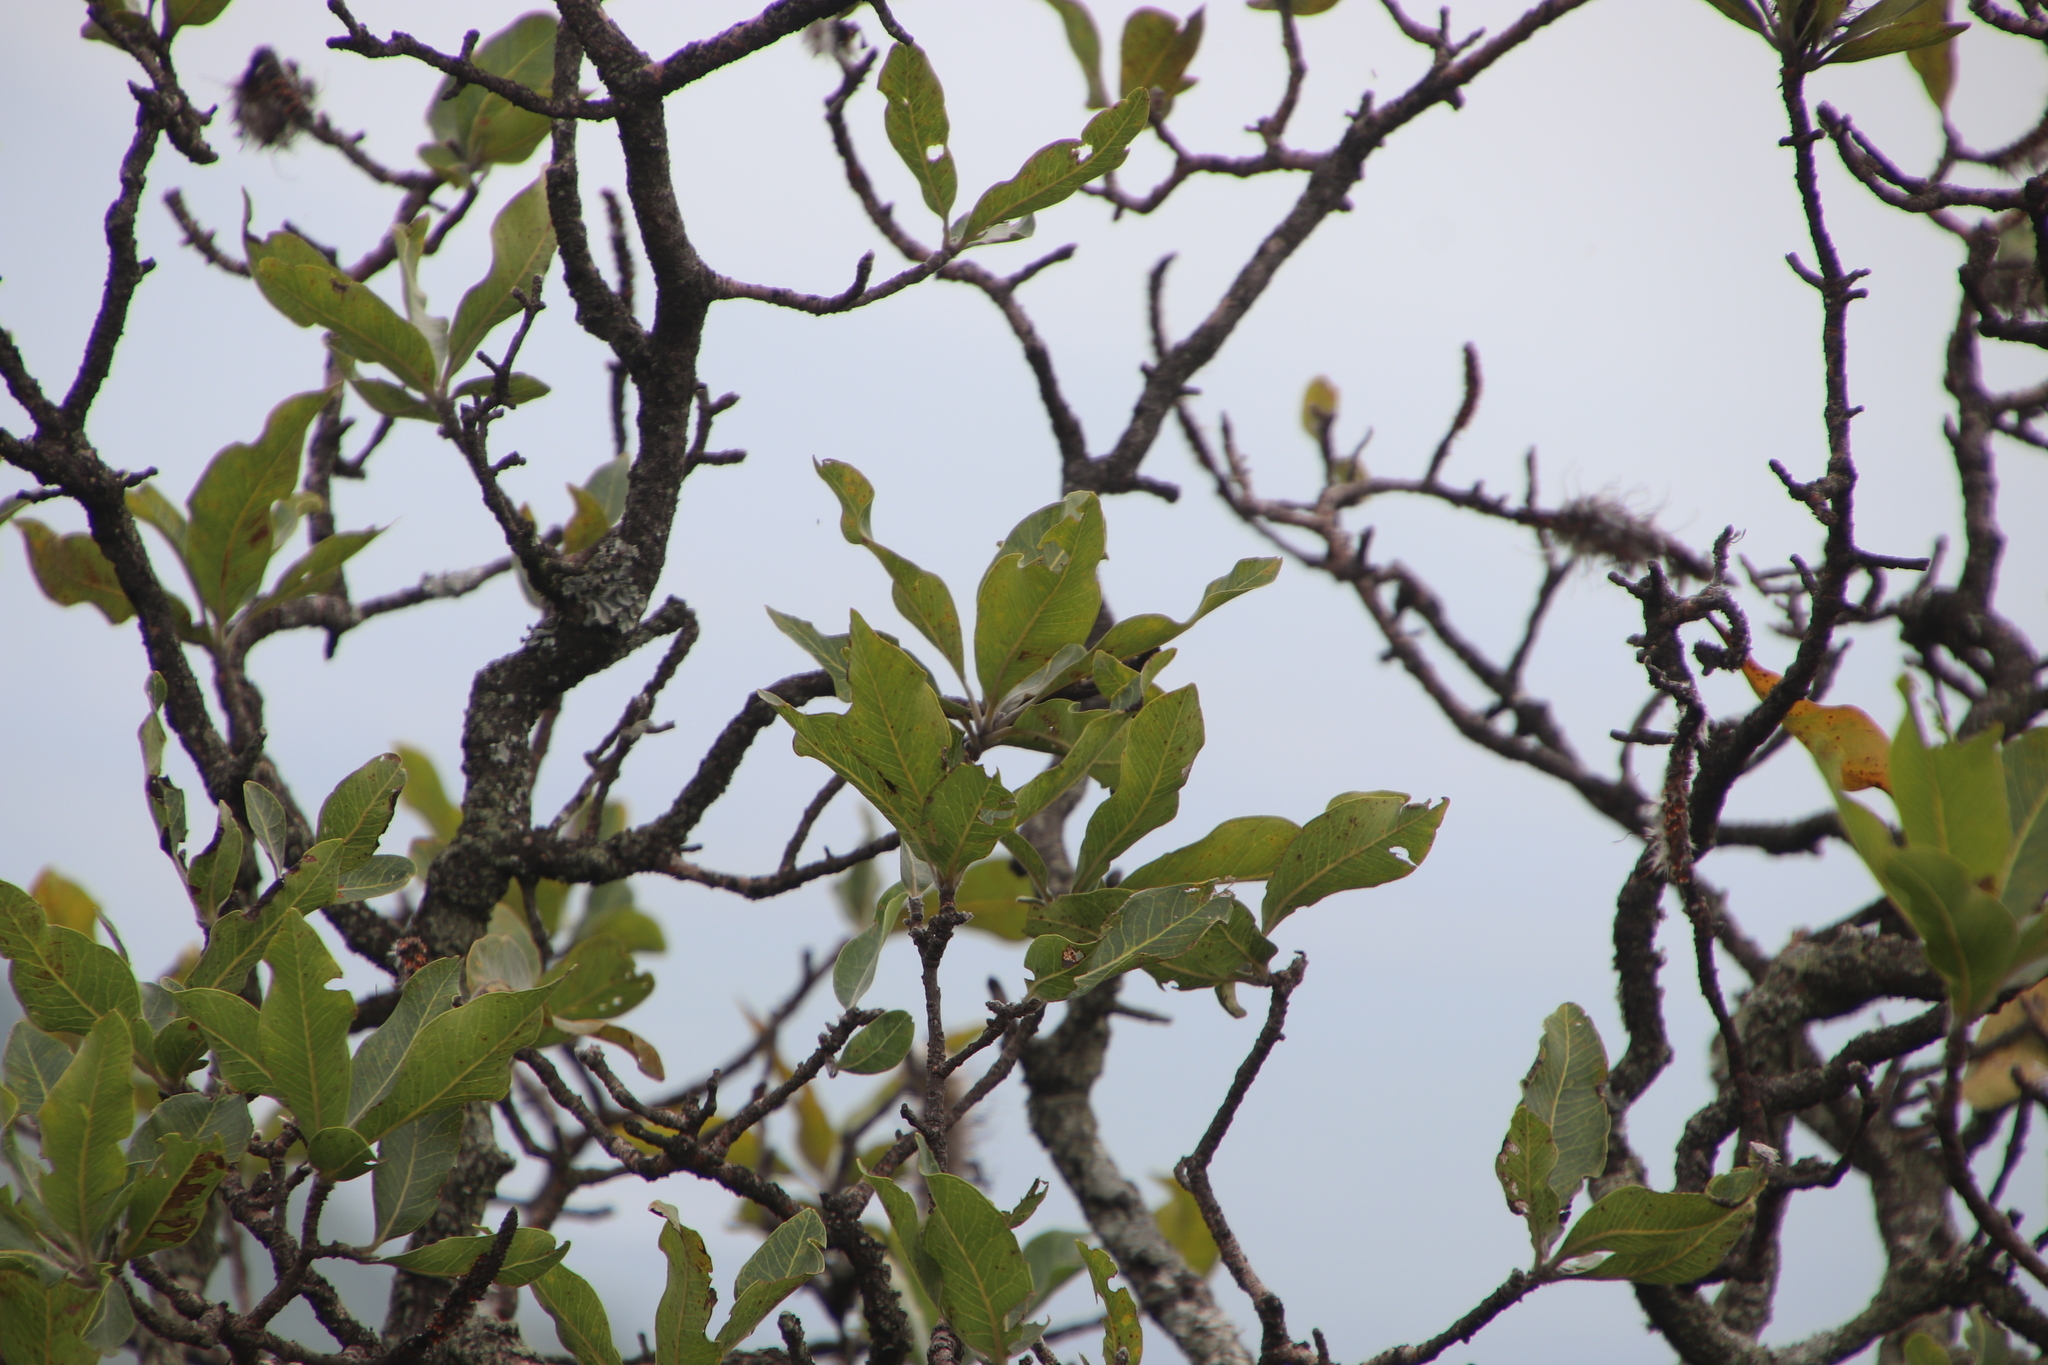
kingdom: Plantae
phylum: Tracheophyta
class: Magnoliopsida
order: Proteales
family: Proteaceae
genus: Faurea
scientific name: Faurea rochetiana
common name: Broad-leaved beech
